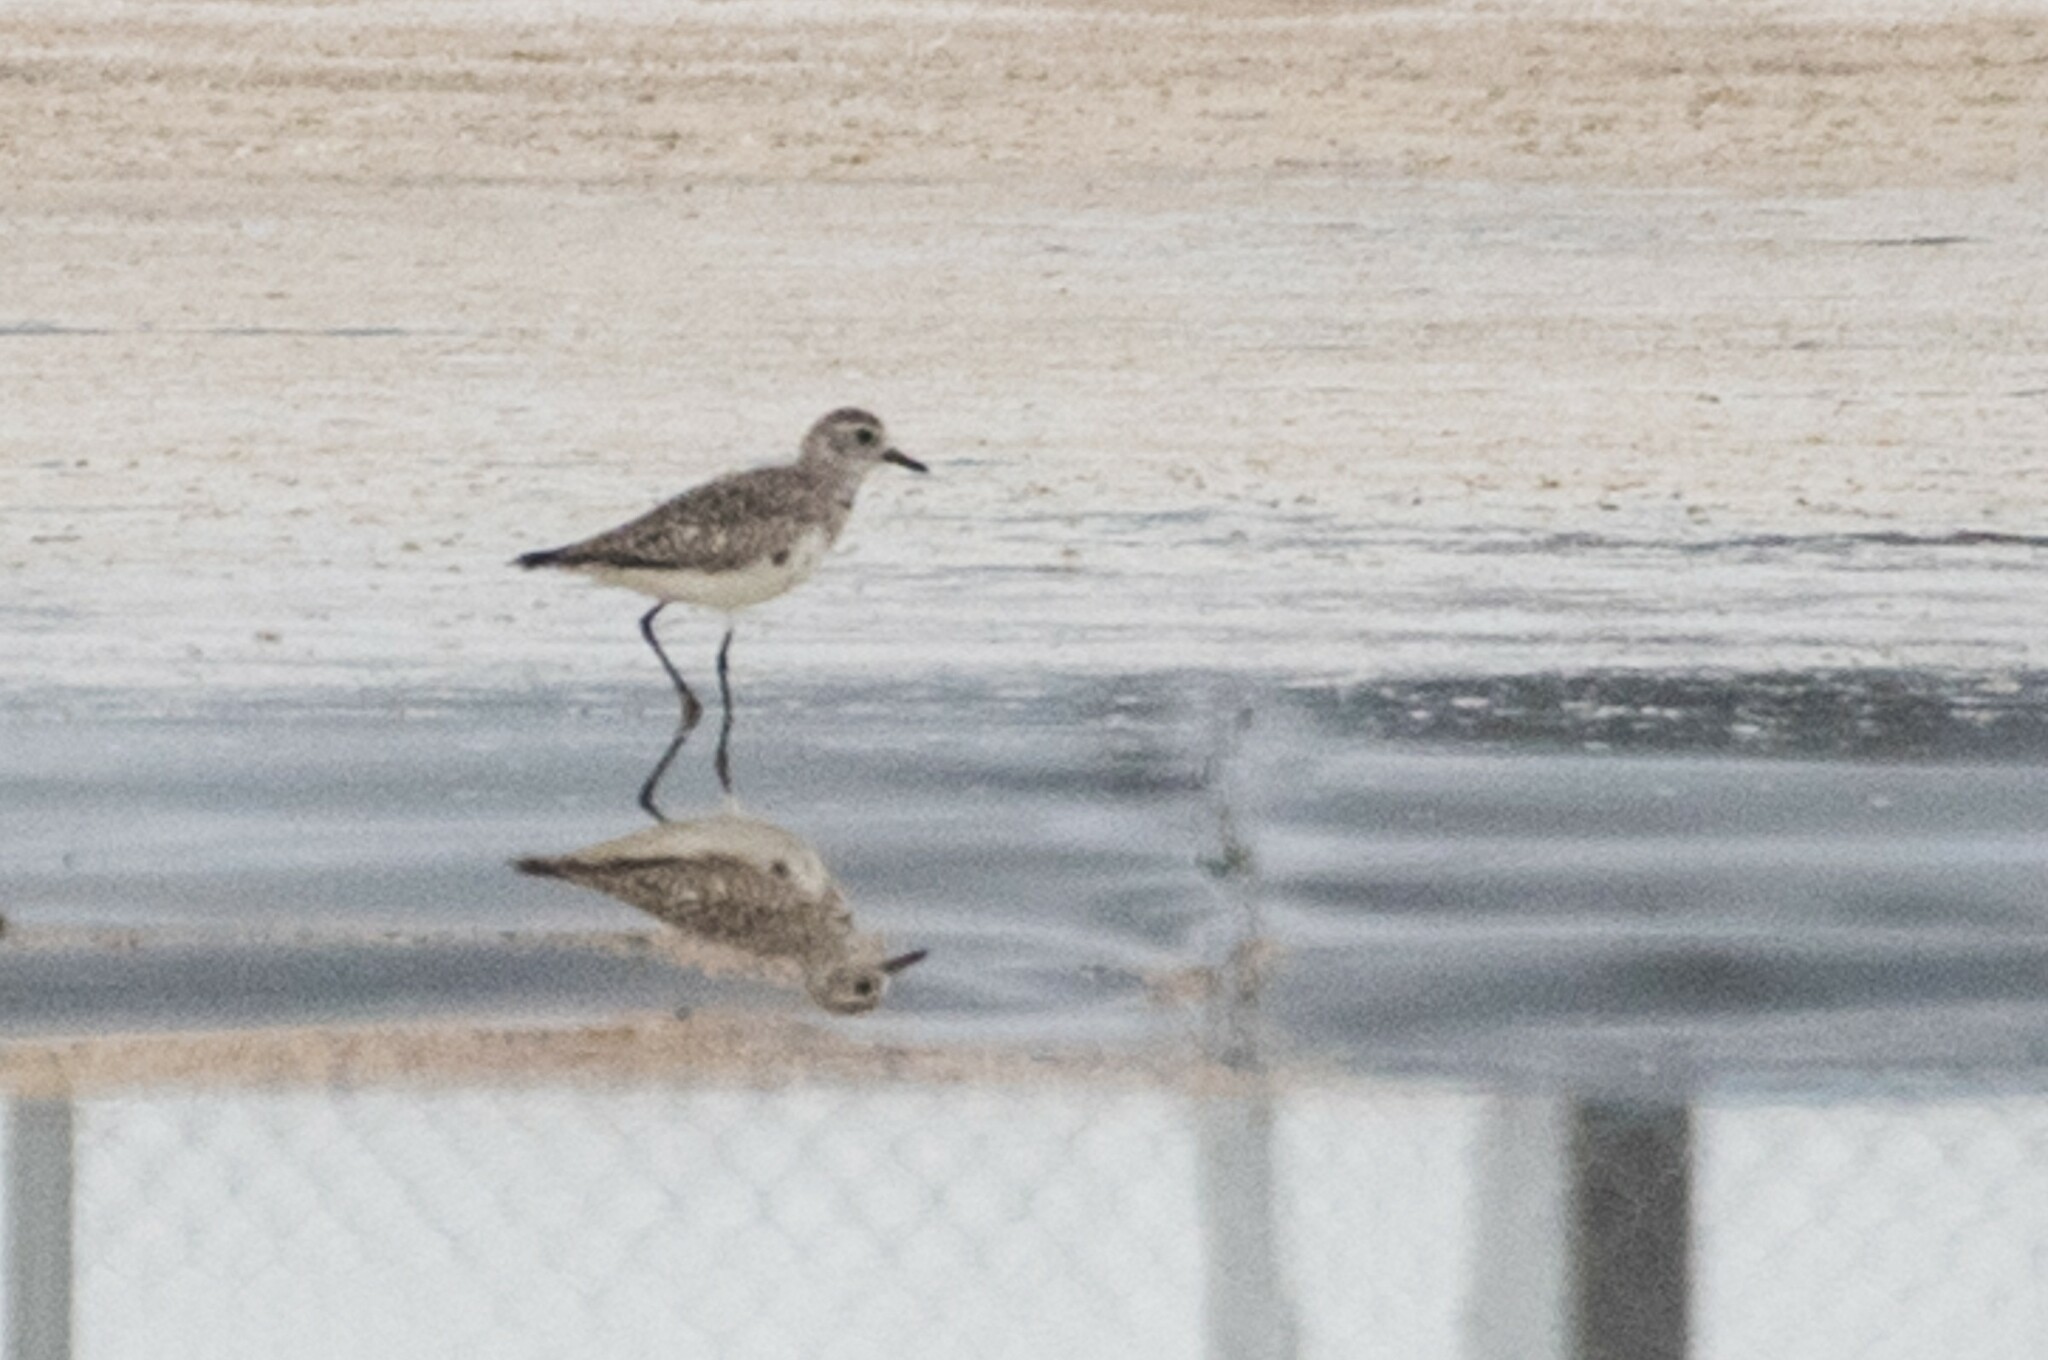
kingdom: Animalia
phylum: Chordata
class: Aves
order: Charadriiformes
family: Charadriidae
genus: Pluvialis
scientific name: Pluvialis squatarola
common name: Grey plover
